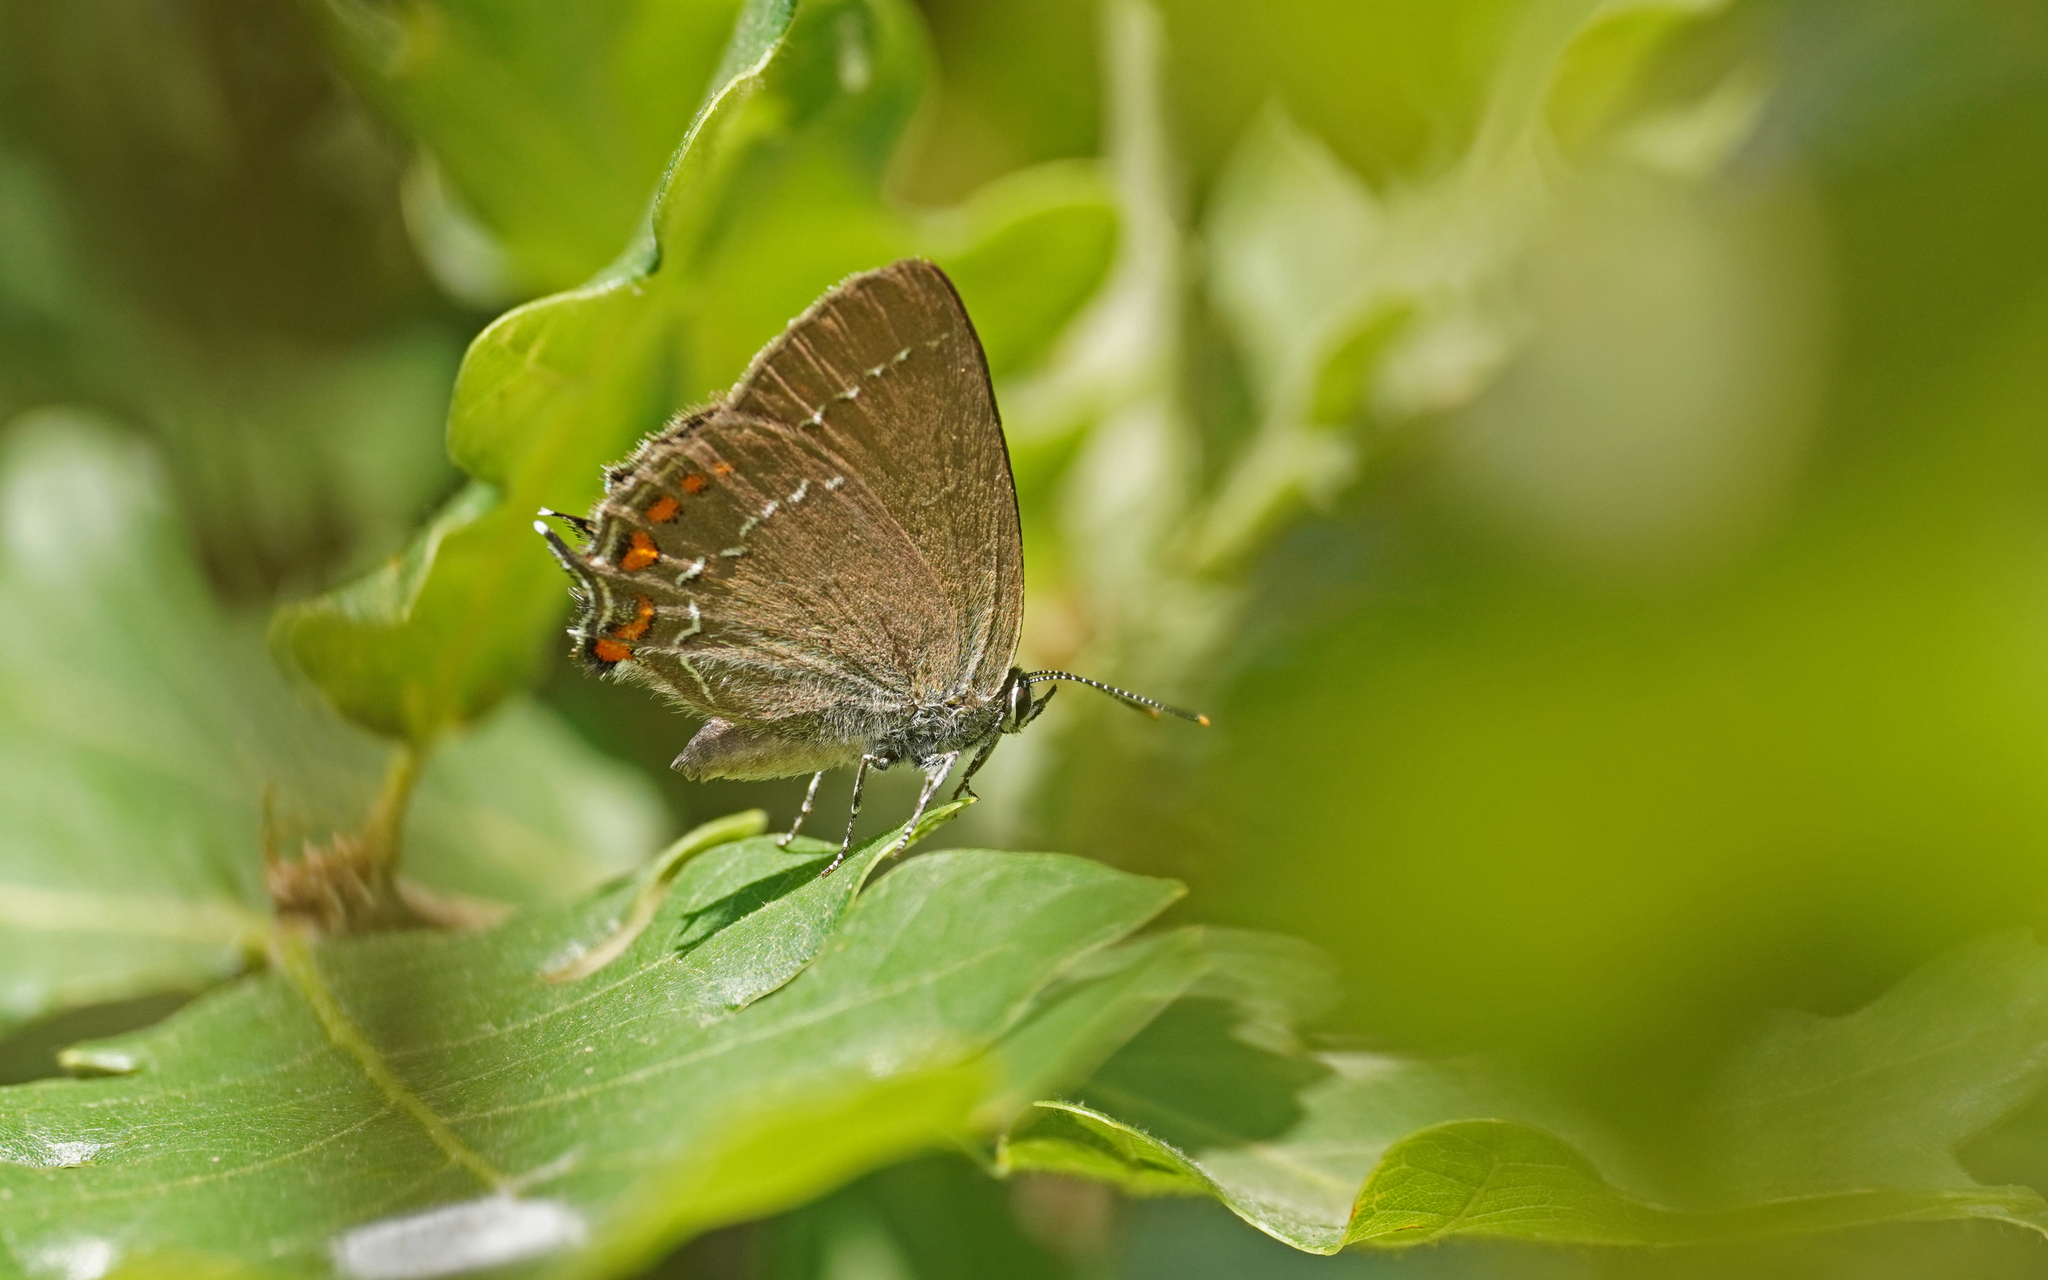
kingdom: Animalia
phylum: Arthropoda
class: Insecta
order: Lepidoptera
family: Lycaenidae
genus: Nordmannia
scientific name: Nordmannia ilicis
